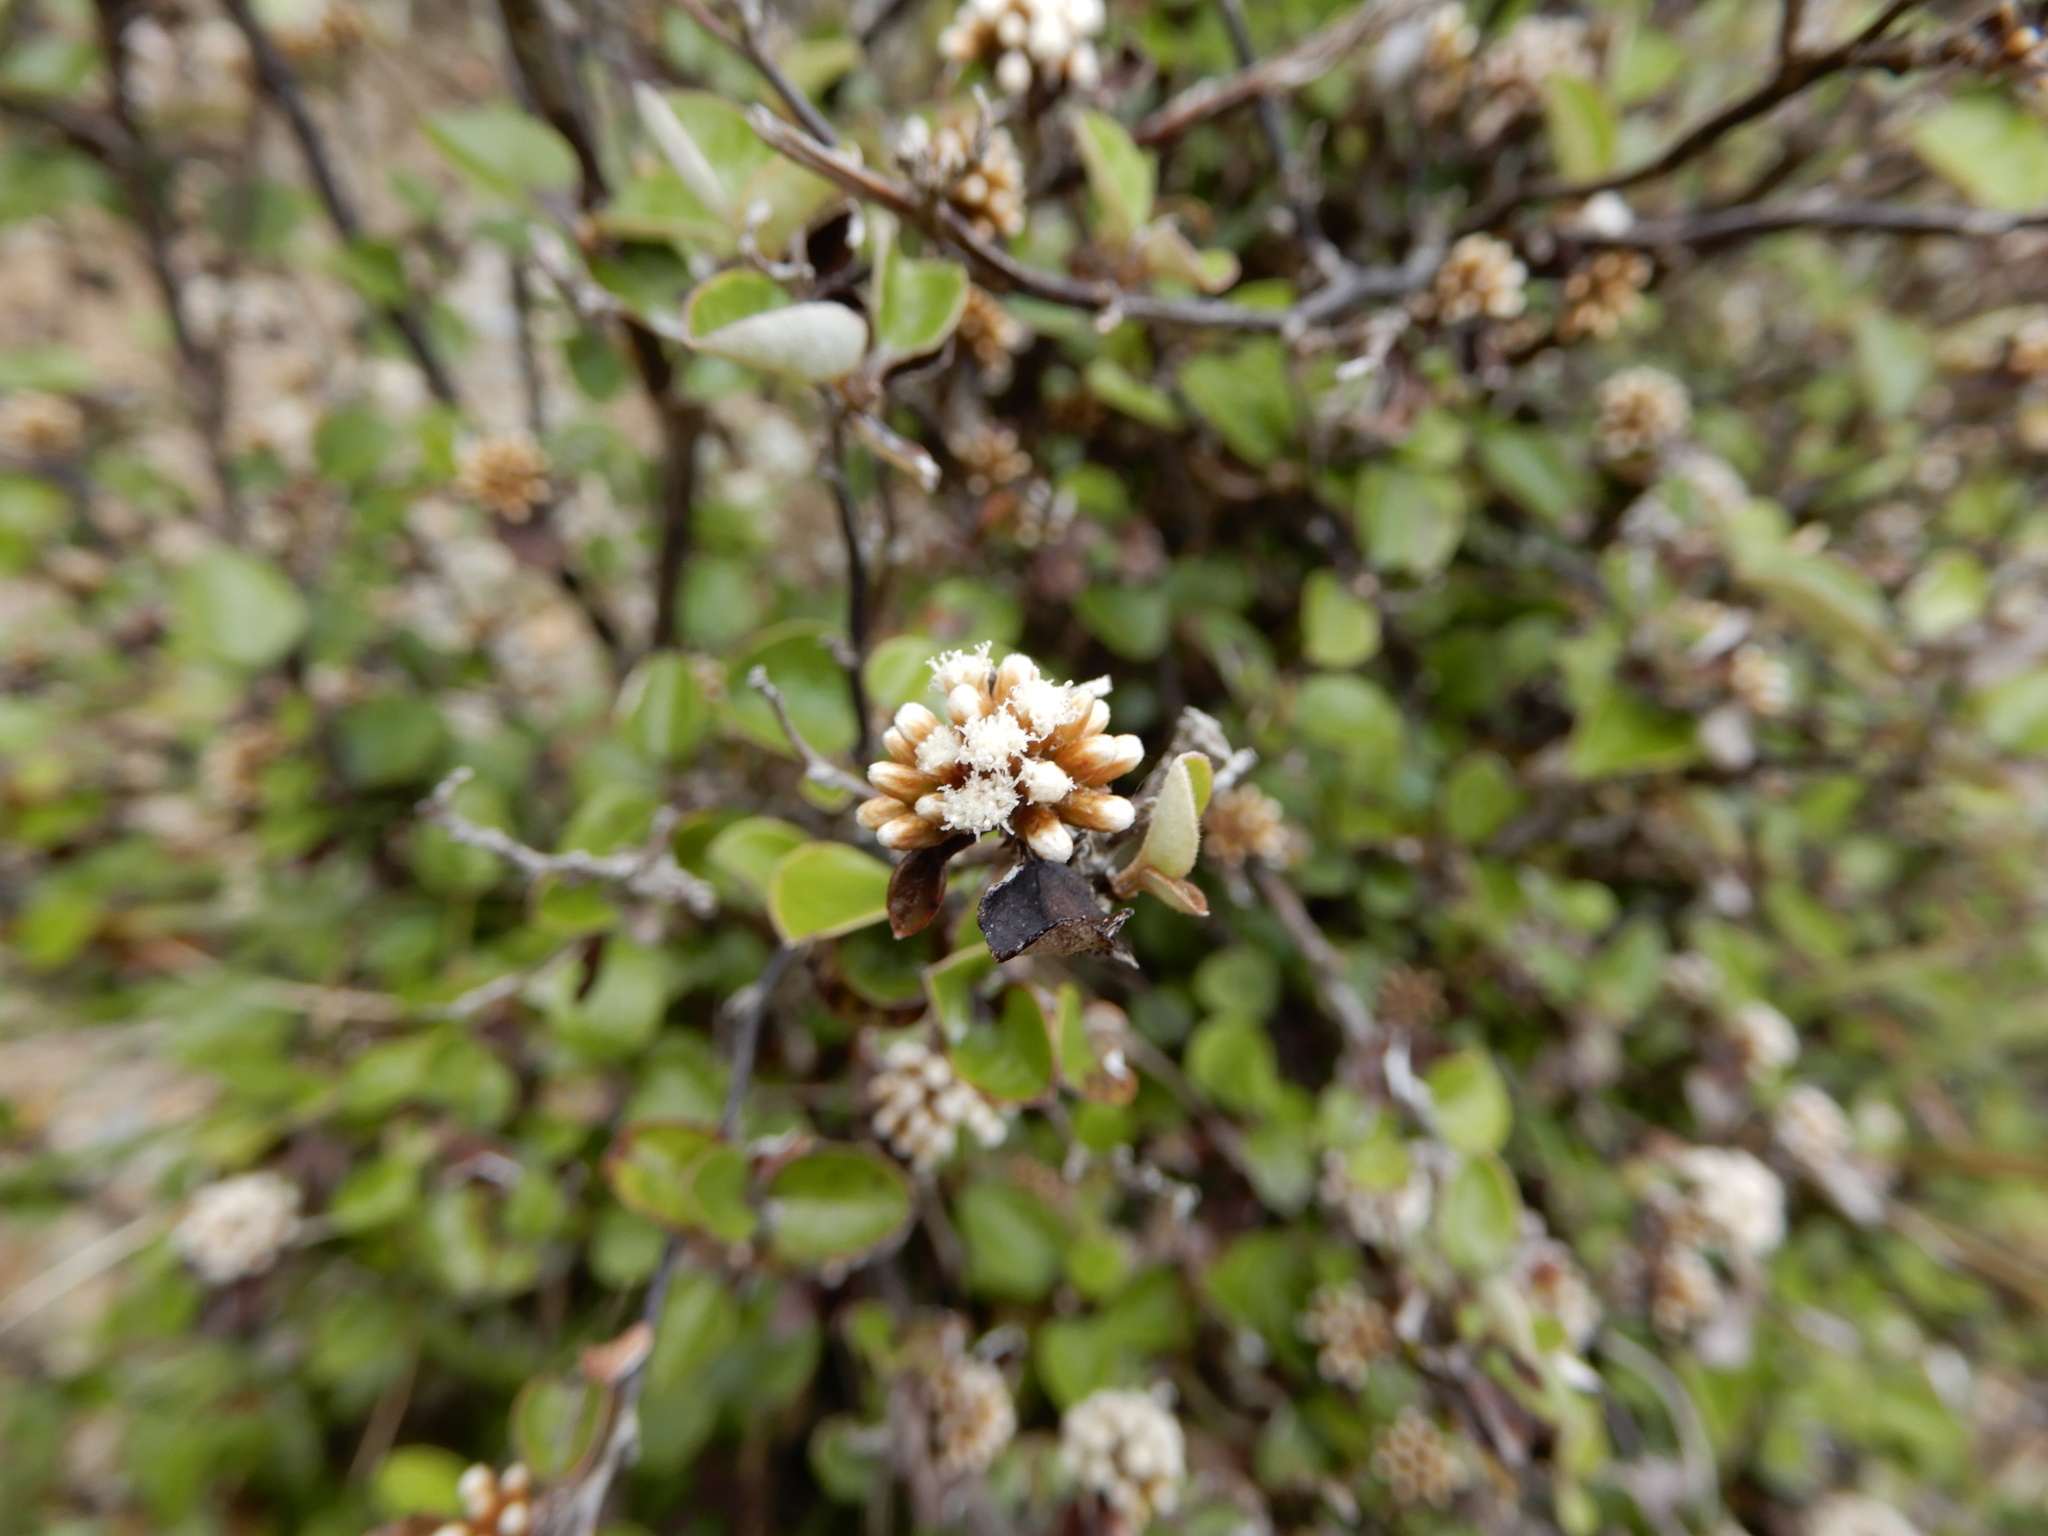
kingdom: Plantae
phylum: Tracheophyta
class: Magnoliopsida
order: Asterales
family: Asteraceae
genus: Ozothamnus
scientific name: Ozothamnus glomeratus
